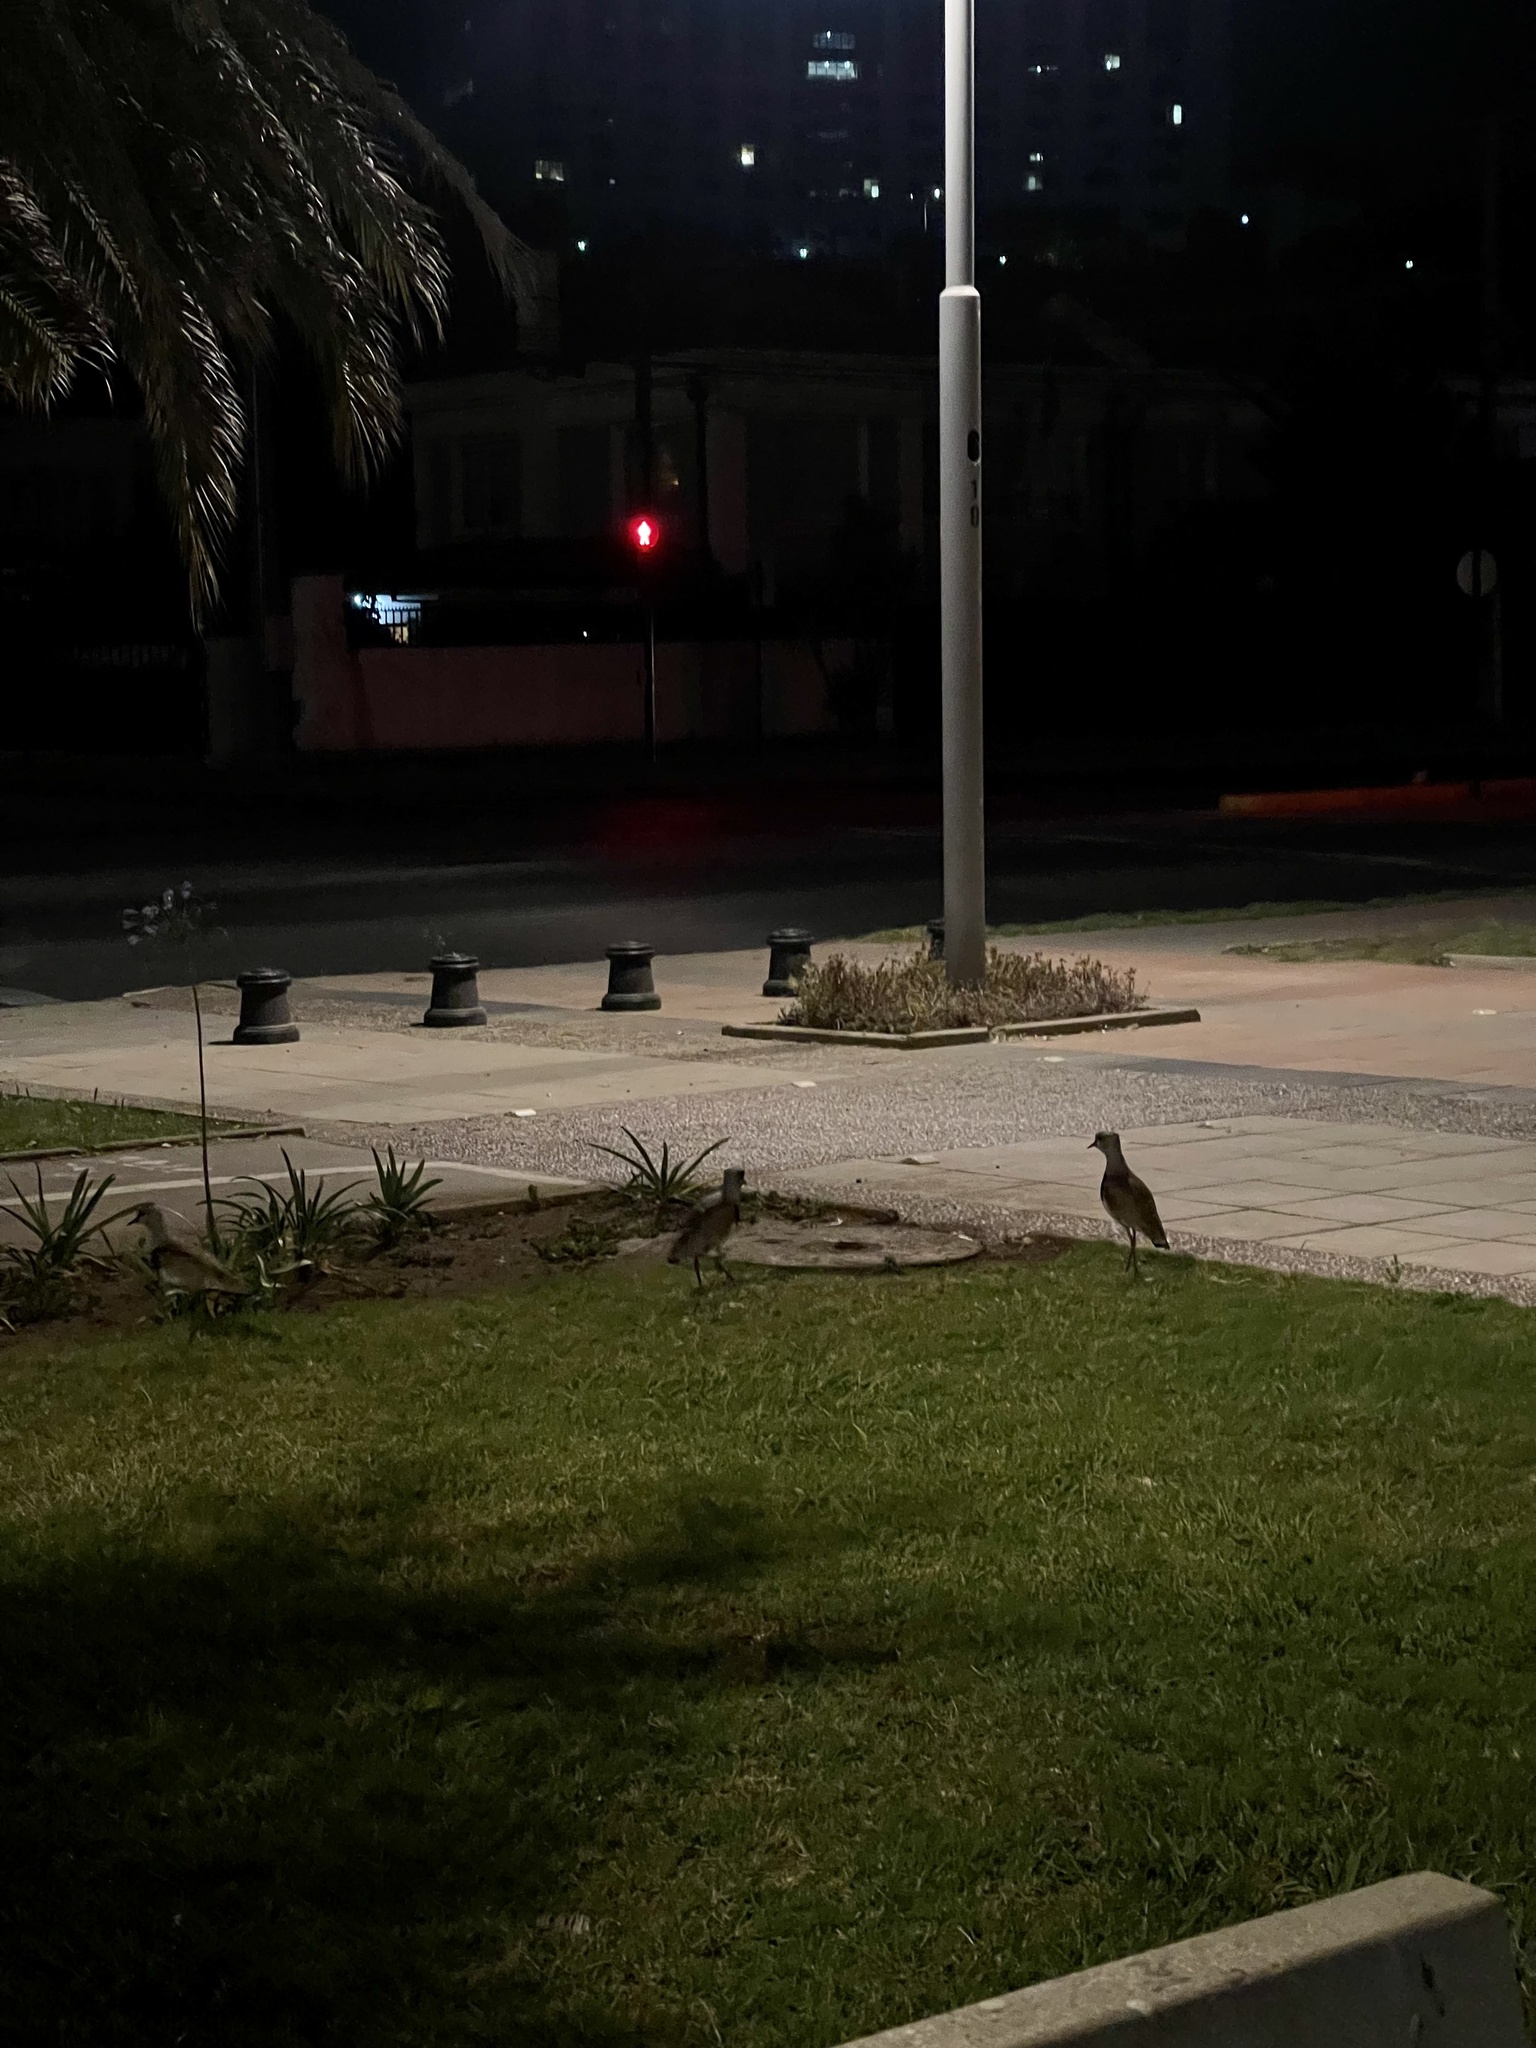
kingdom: Animalia
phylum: Chordata
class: Aves
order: Charadriiformes
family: Charadriidae
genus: Vanellus
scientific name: Vanellus chilensis
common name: Southern lapwing
